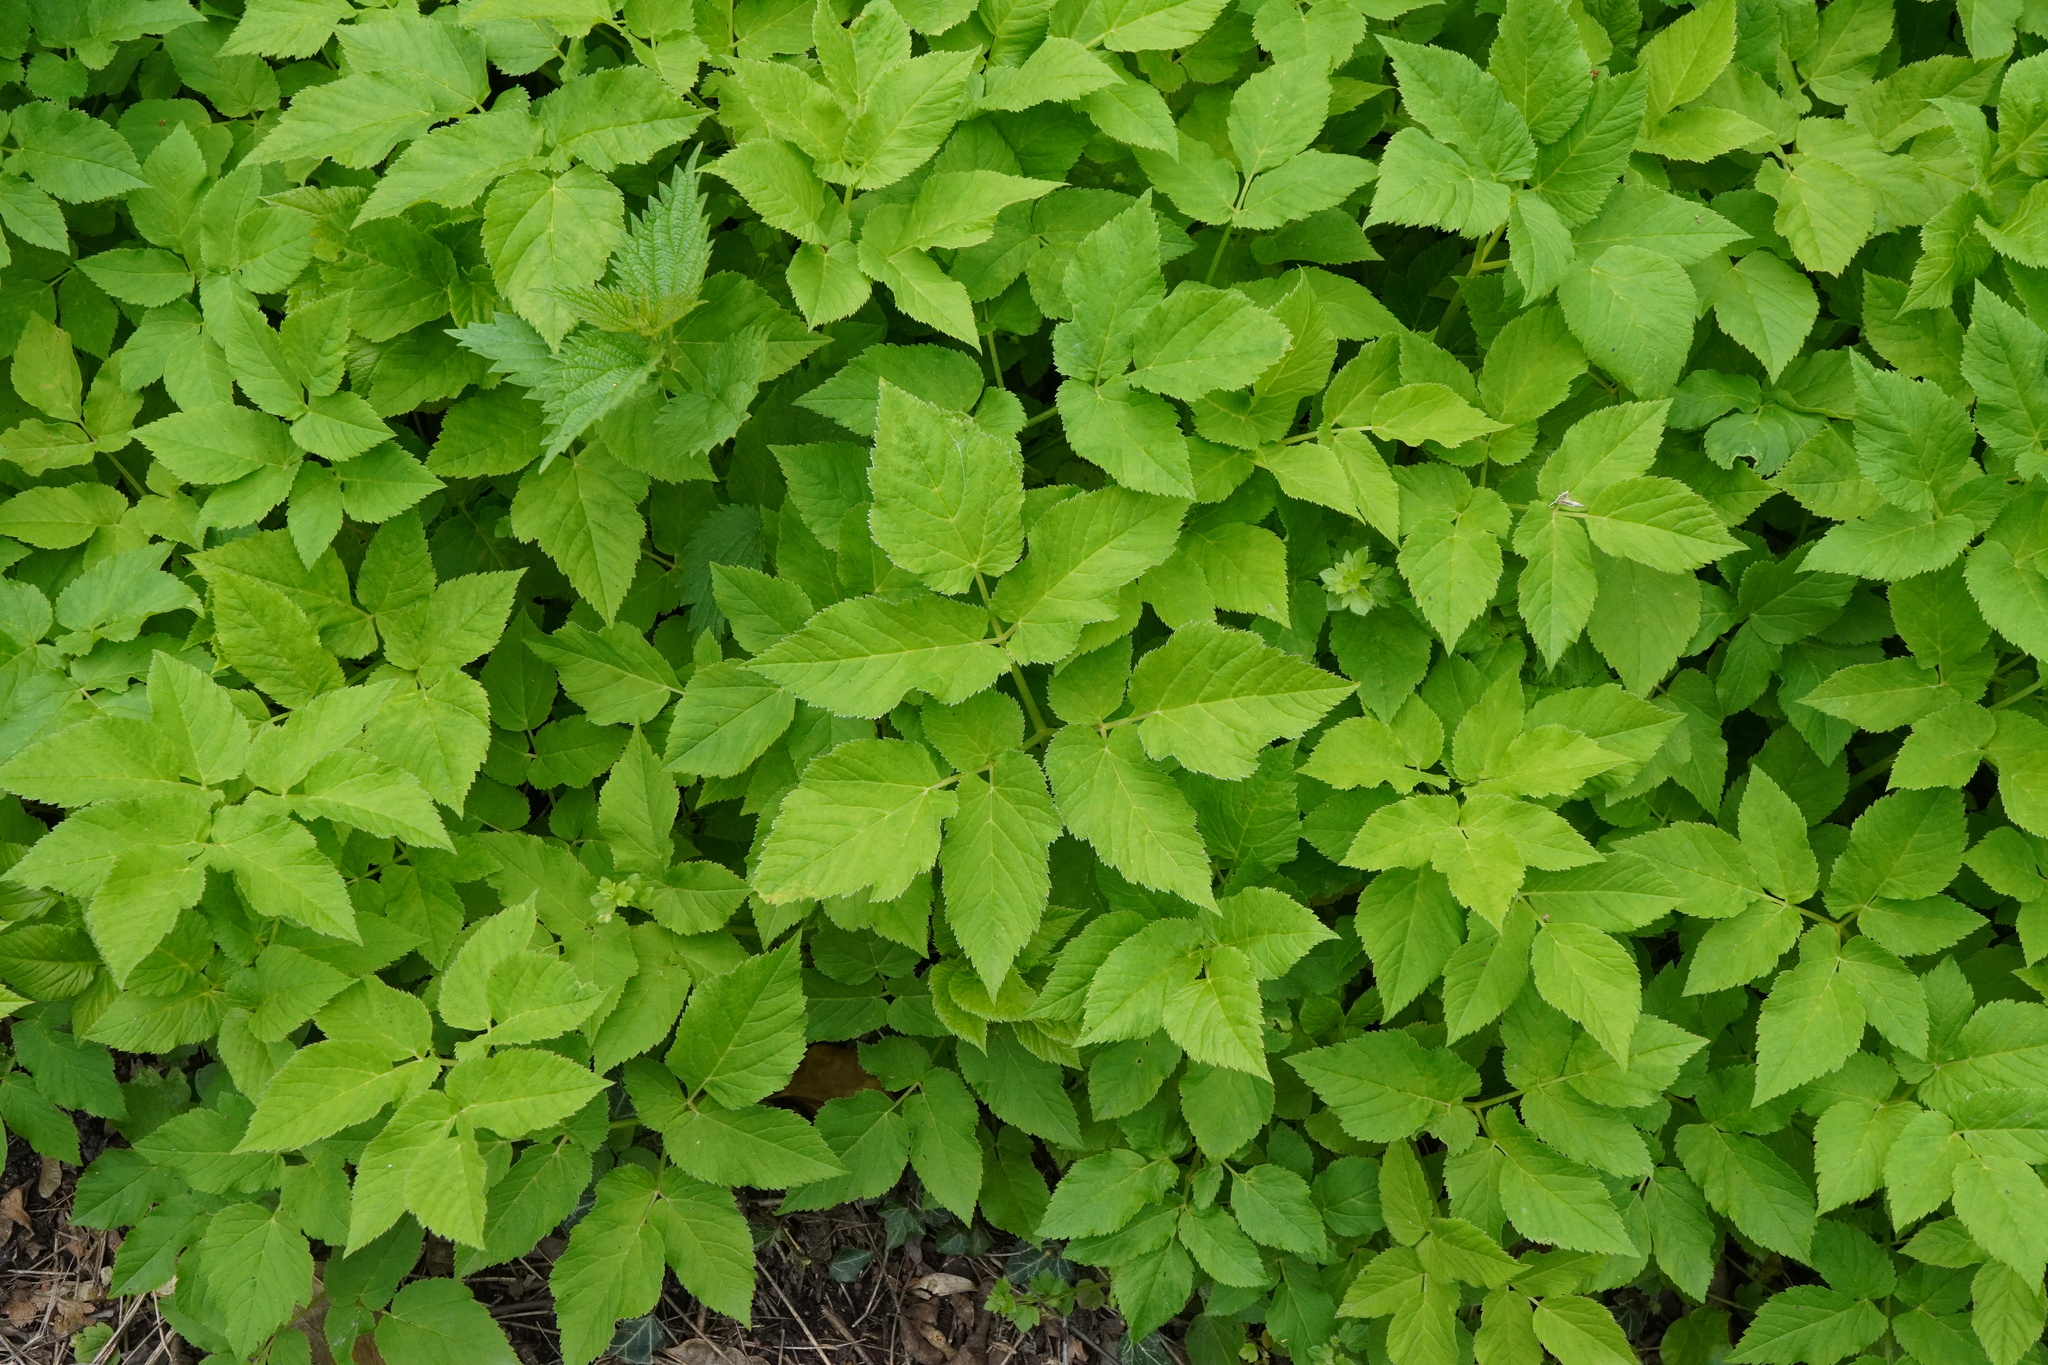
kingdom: Plantae
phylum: Tracheophyta
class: Magnoliopsida
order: Apiales
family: Apiaceae
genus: Aegopodium
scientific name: Aegopodium podagraria
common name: Ground-elder
